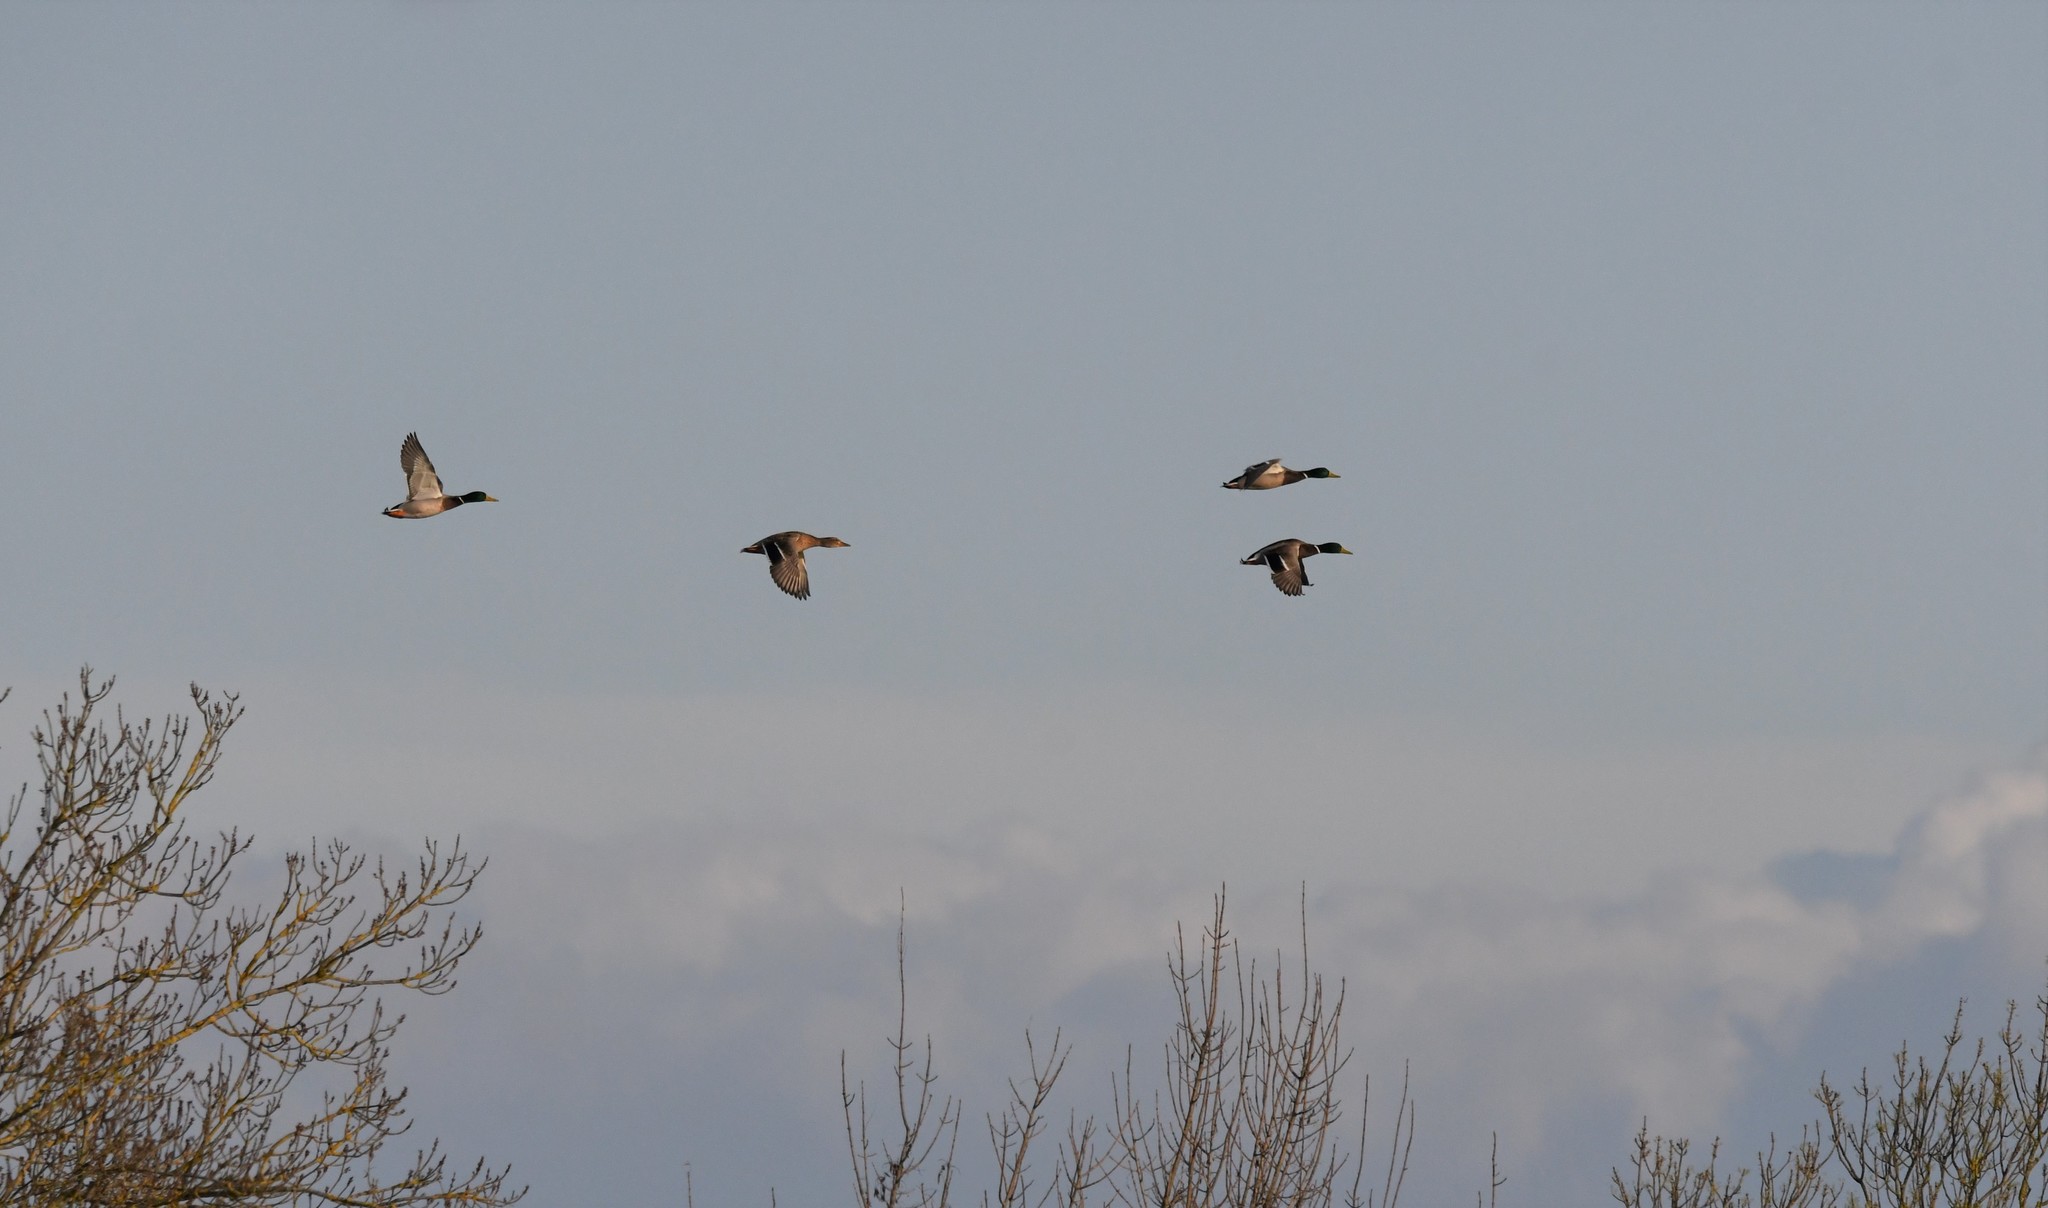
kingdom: Animalia
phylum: Chordata
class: Aves
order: Anseriformes
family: Anatidae
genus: Anas
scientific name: Anas platyrhynchos
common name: Mallard
